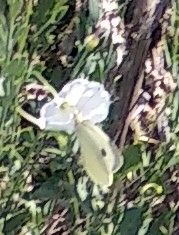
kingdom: Animalia
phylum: Arthropoda
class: Insecta
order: Lepidoptera
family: Pieridae
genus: Pieris
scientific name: Pieris brassicae
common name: Large white
